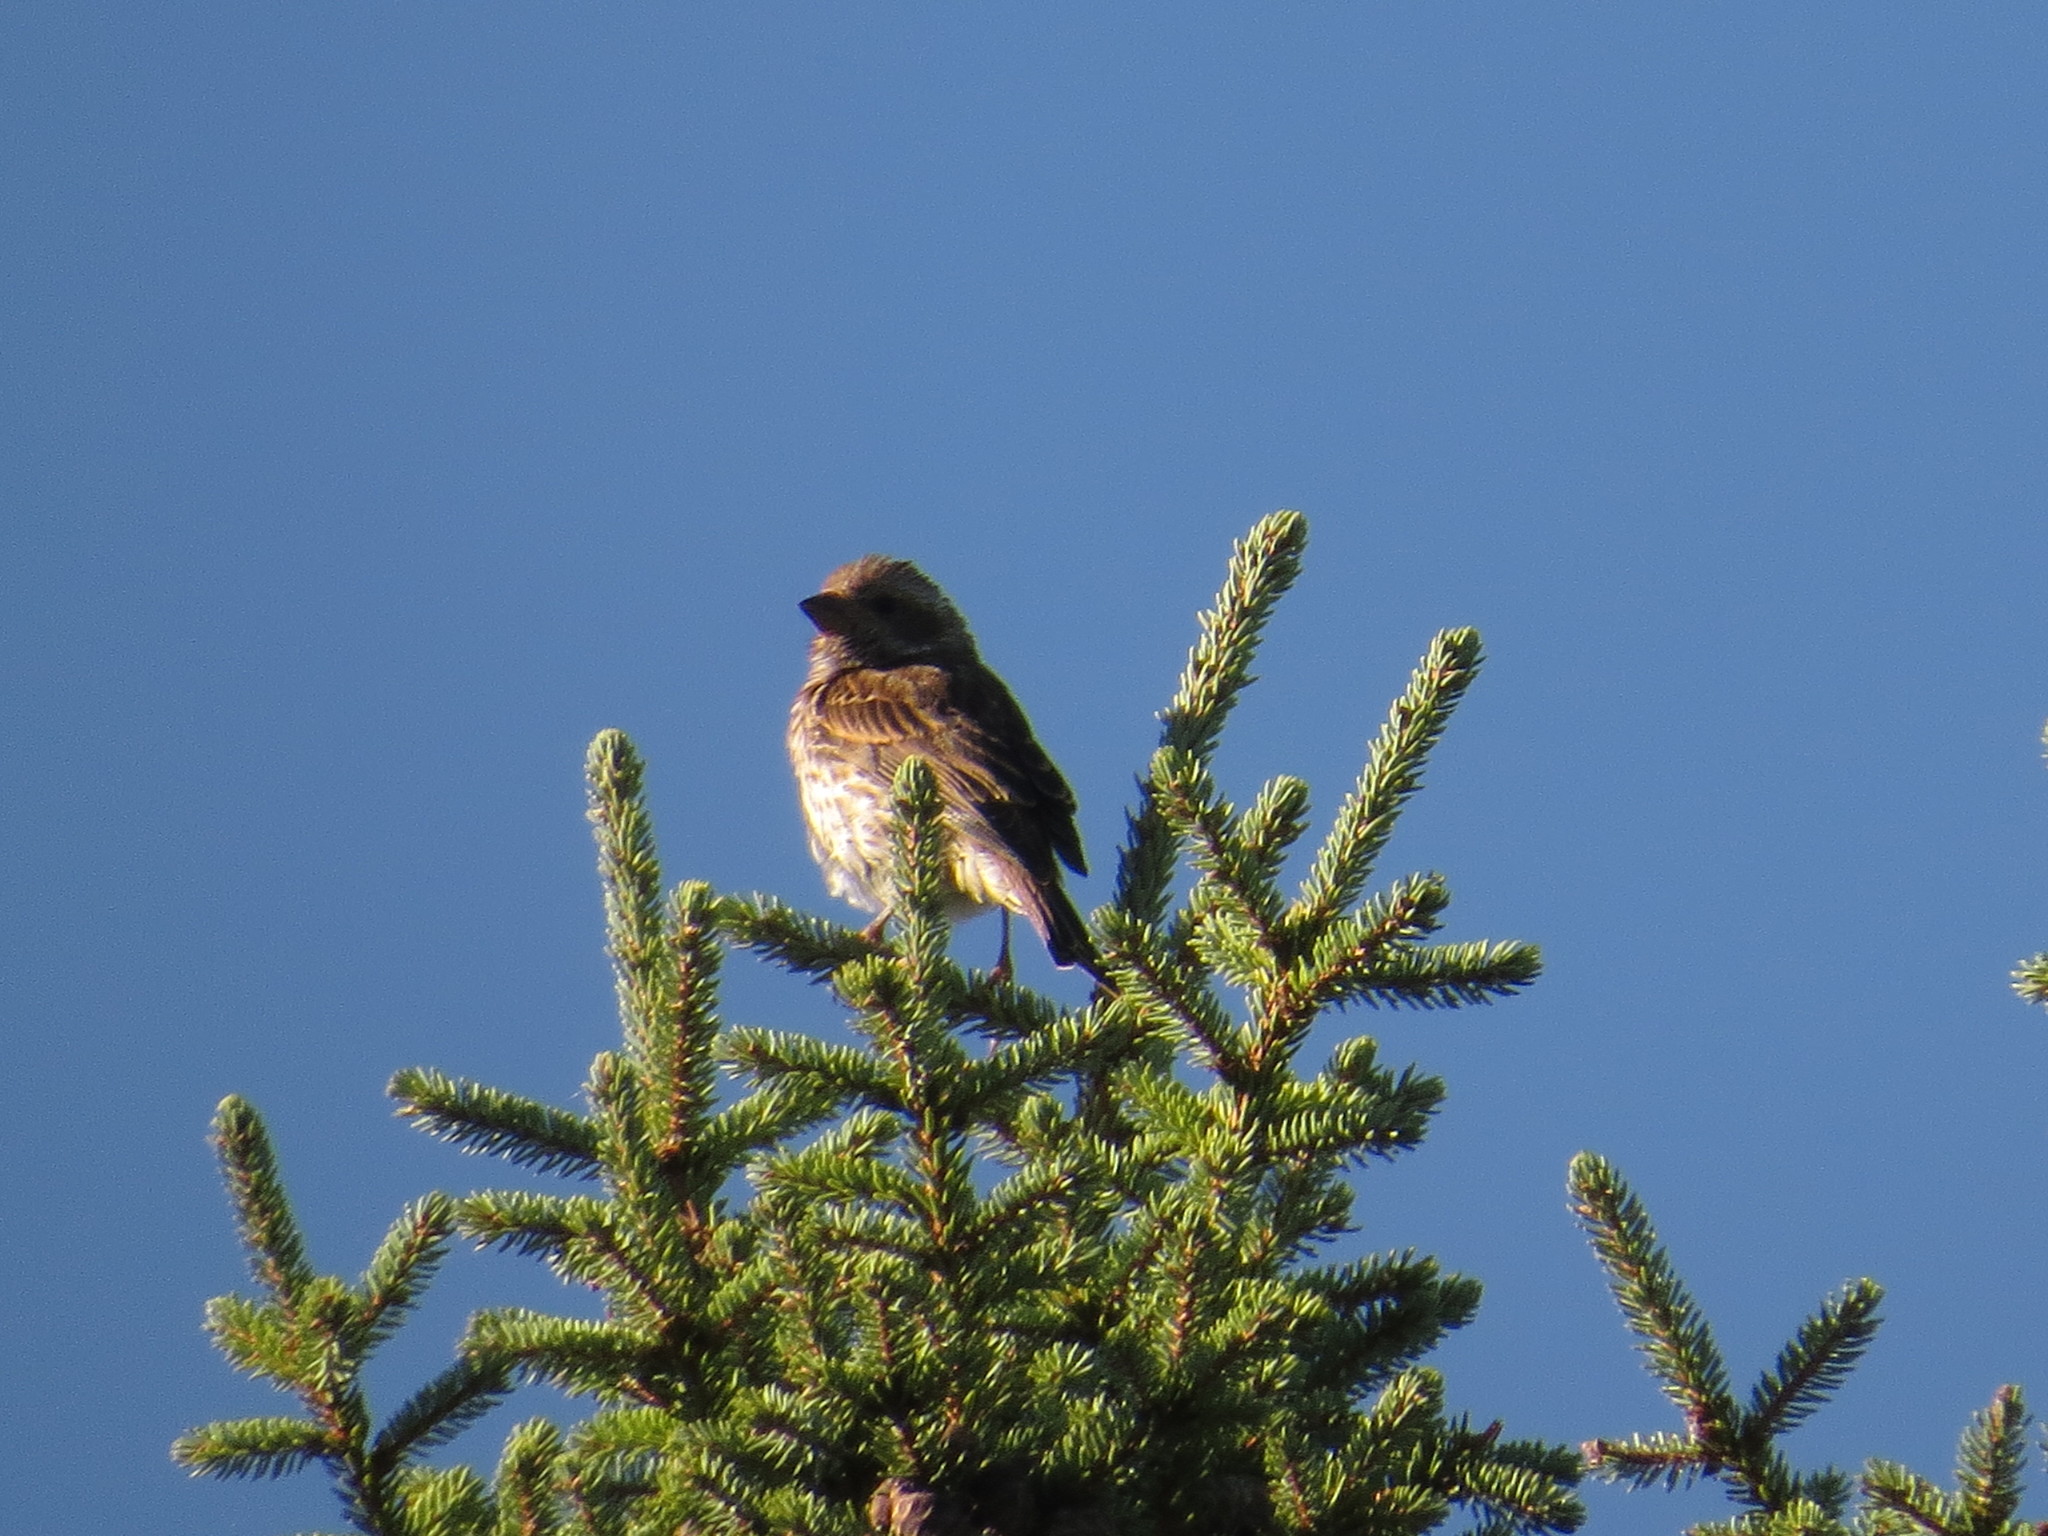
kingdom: Animalia
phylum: Chordata
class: Aves
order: Passeriformes
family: Fringillidae
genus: Haemorhous
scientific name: Haemorhous purpureus
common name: Purple finch
